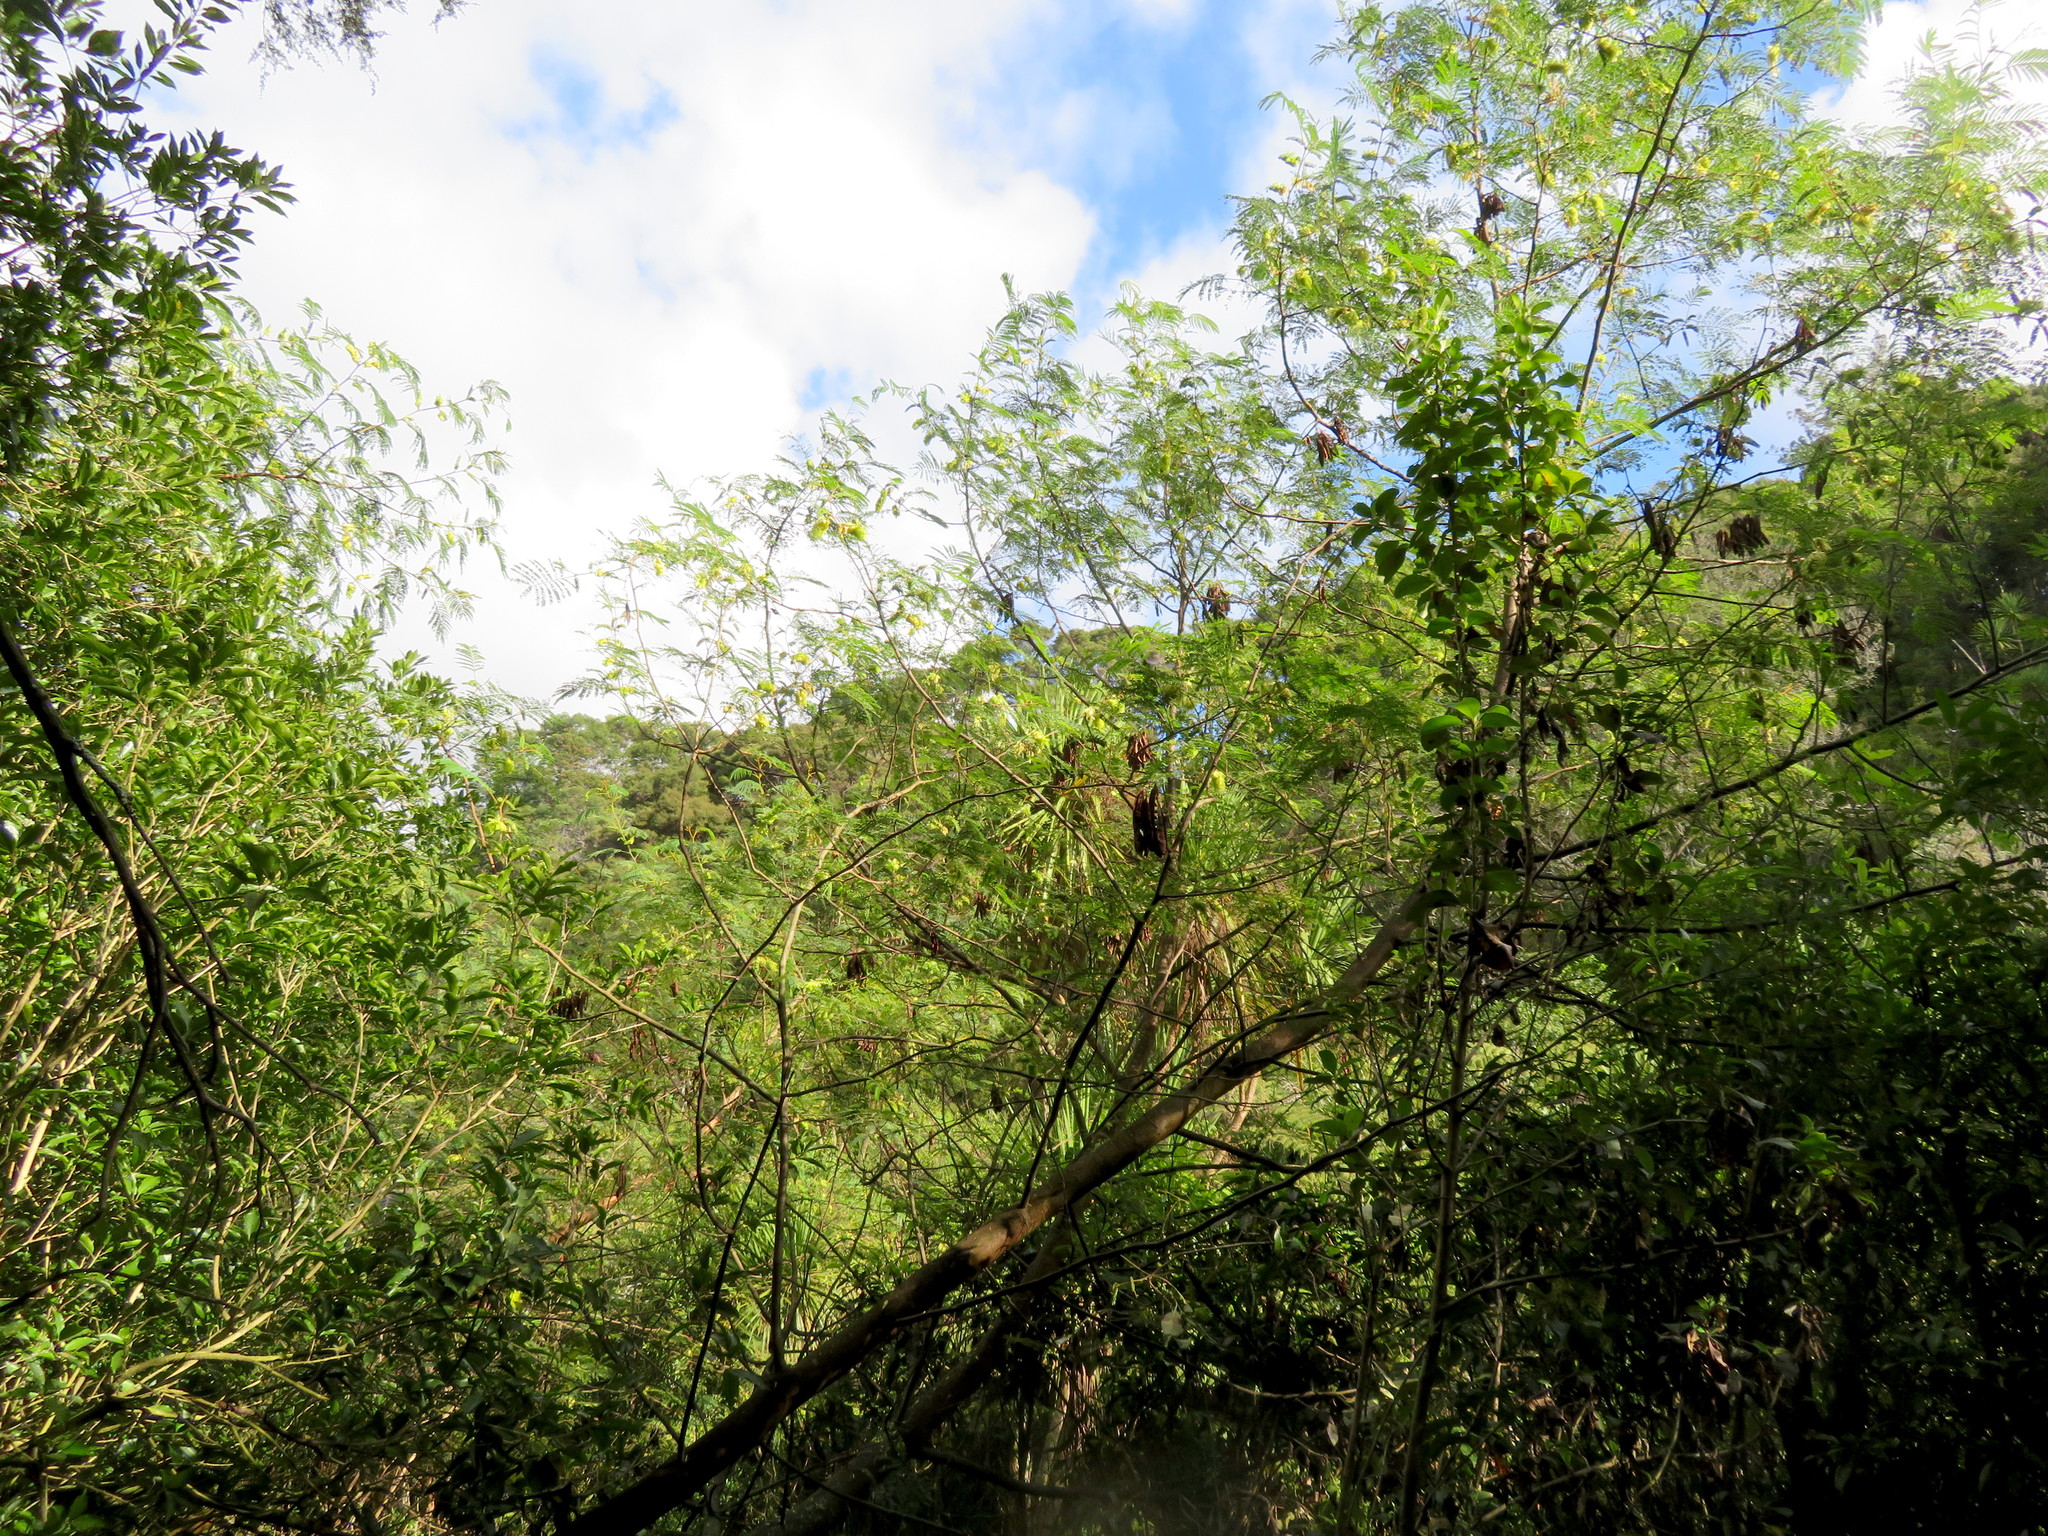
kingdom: Plantae
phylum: Tracheophyta
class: Magnoliopsida
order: Fabales
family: Fabaceae
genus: Paraserianthes
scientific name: Paraserianthes lophantha
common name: Plume albizia
